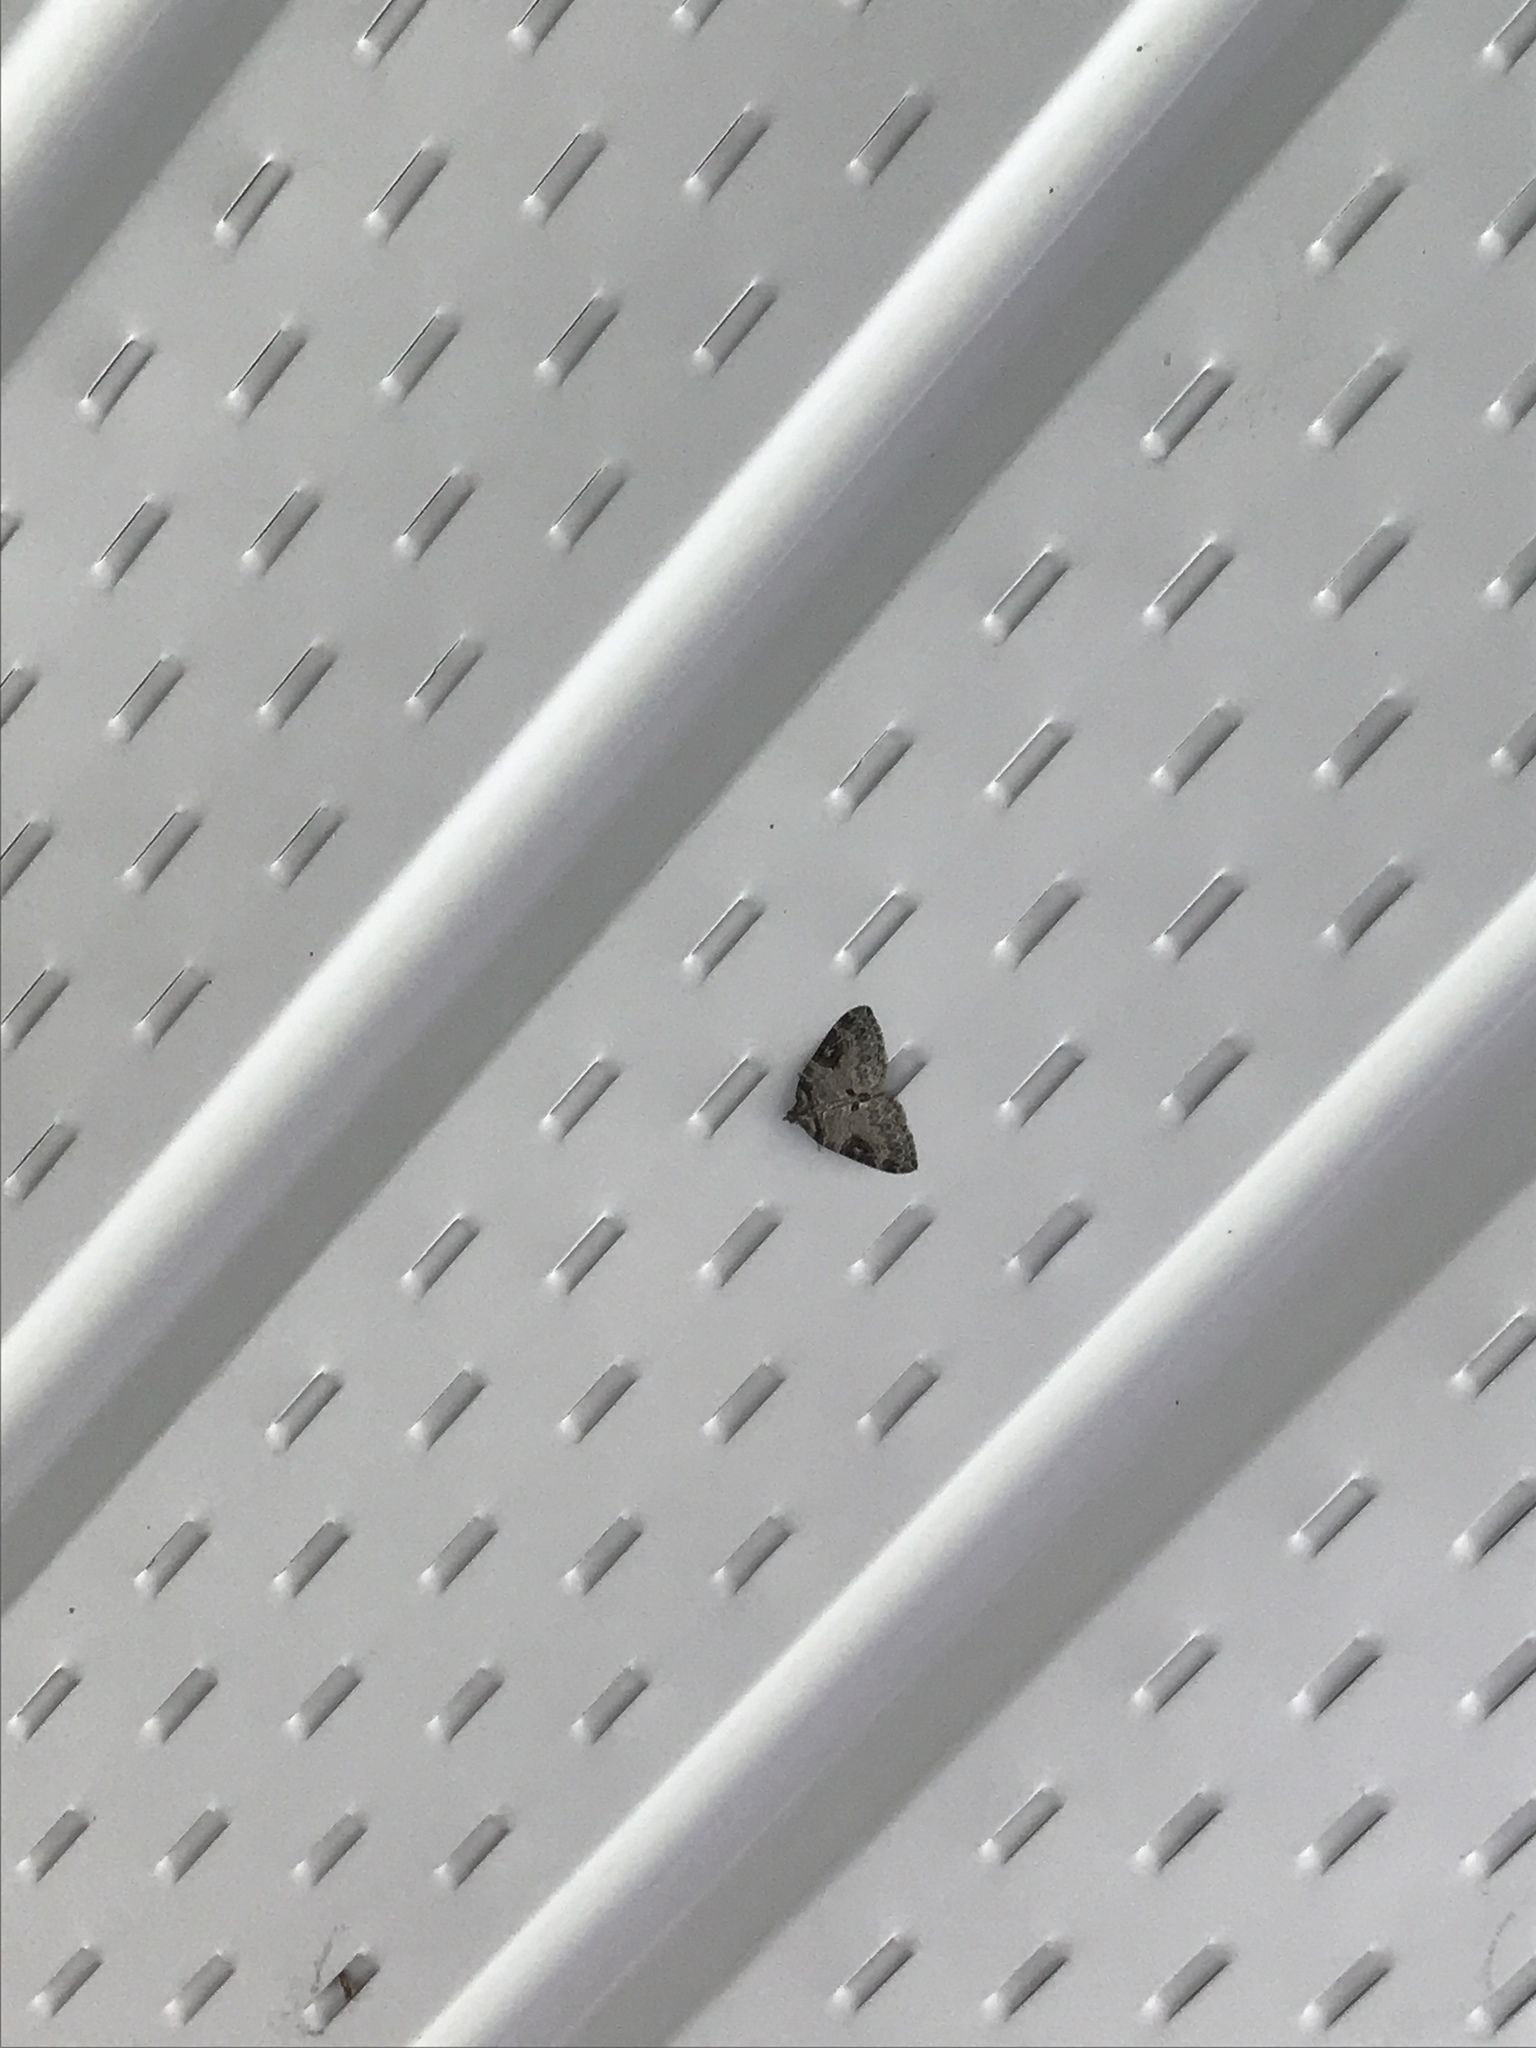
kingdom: Animalia
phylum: Arthropoda
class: Insecta
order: Lepidoptera
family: Geometridae
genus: Plemyria
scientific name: Plemyria georgii
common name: George's carpet moth
